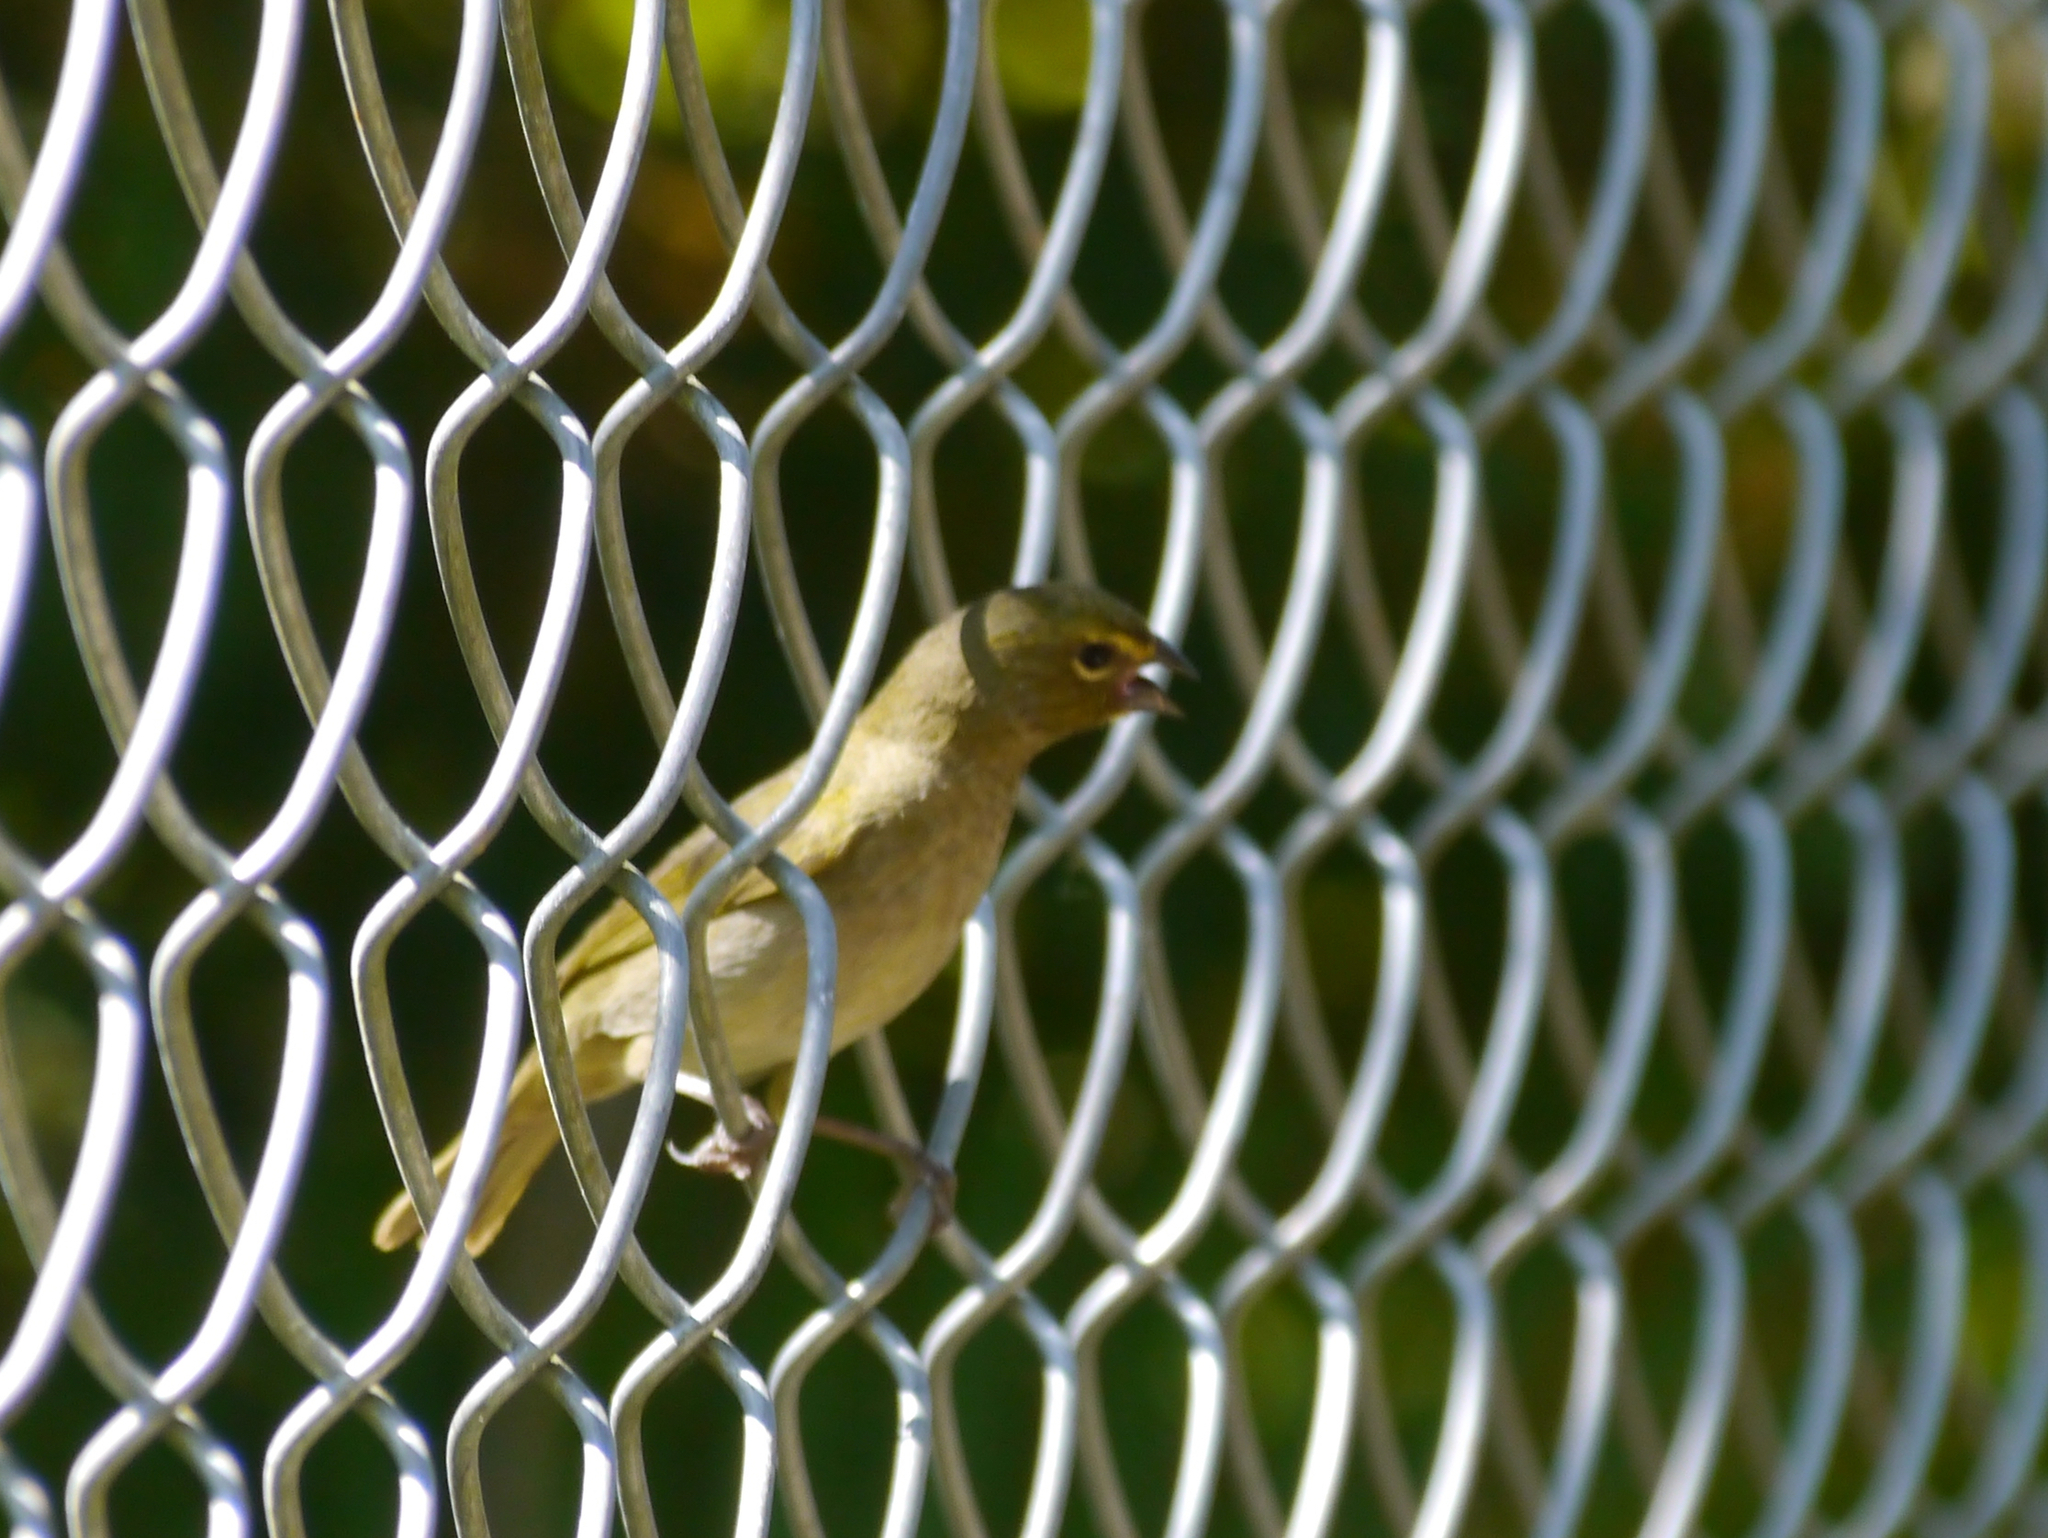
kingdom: Animalia
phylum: Chordata
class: Aves
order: Passeriformes
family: Thraupidae
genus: Tiaris
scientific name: Tiaris olivaceus
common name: Yellow-faced grassquit
